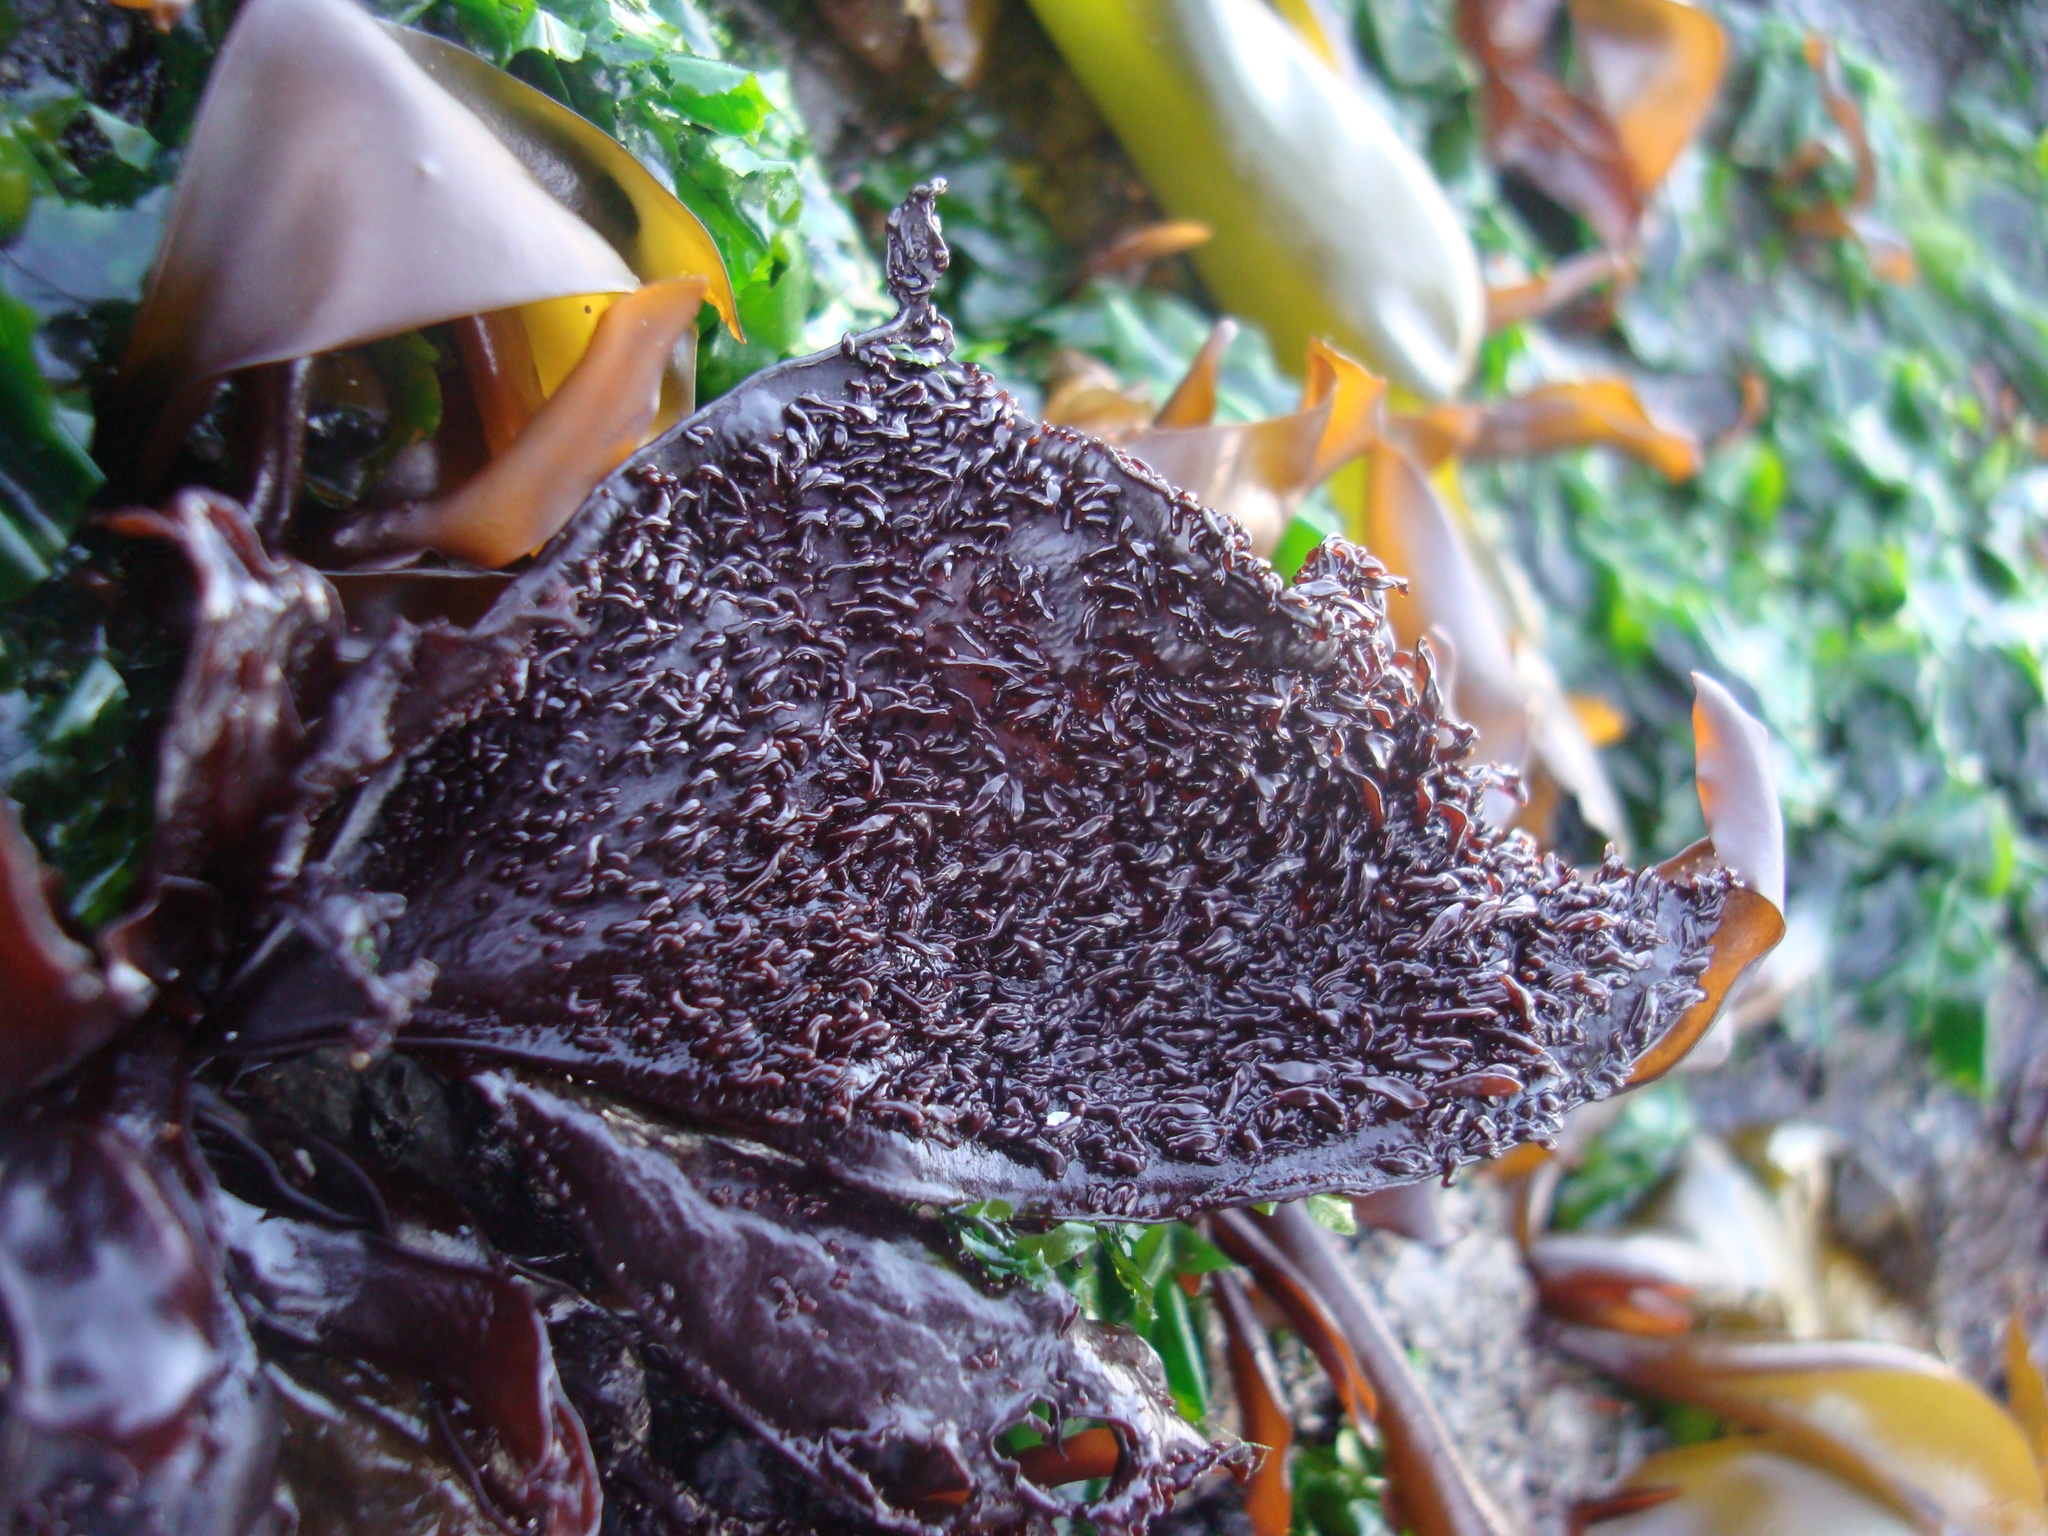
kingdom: Plantae
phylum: Rhodophyta
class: Florideophyceae
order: Gigartinales
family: Phyllophoraceae
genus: Mastocarpus
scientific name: Mastocarpus
